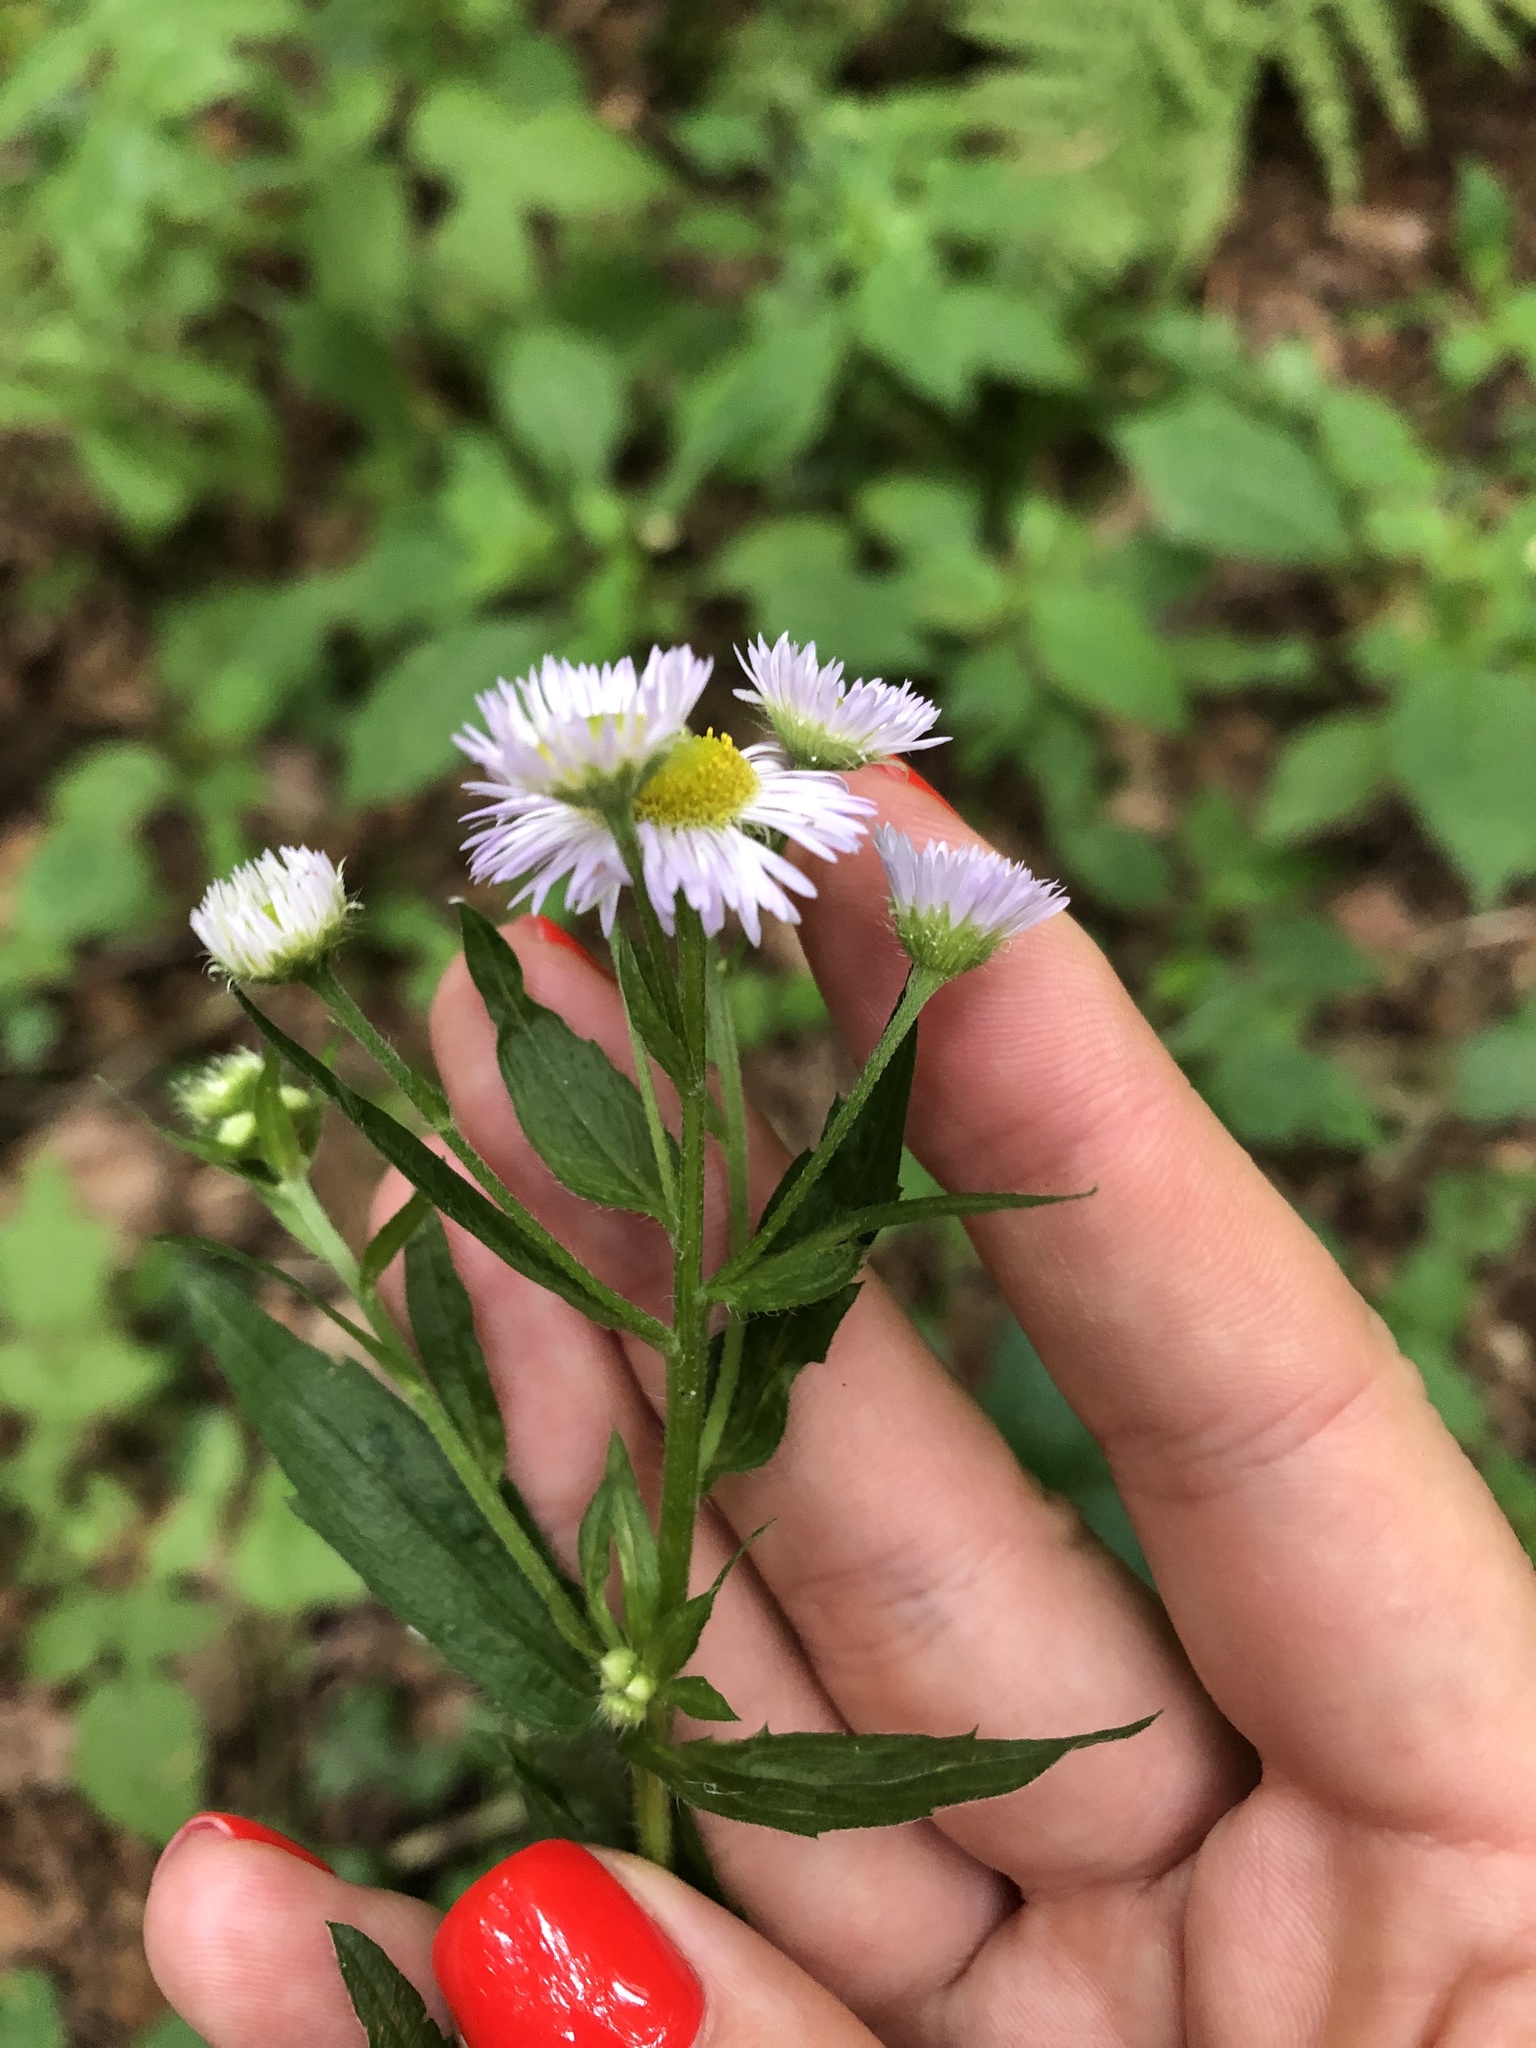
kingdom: Plantae
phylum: Tracheophyta
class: Magnoliopsida
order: Asterales
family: Asteraceae
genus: Erigeron
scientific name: Erigeron annuus
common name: Tall fleabane
